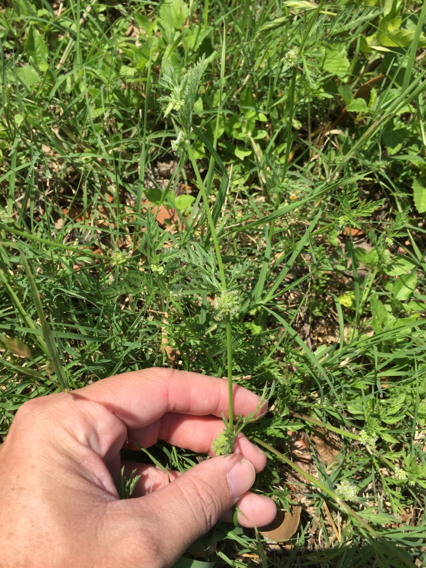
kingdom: Plantae
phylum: Tracheophyta
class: Magnoliopsida
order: Apiales
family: Apiaceae
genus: Torilis
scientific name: Torilis nodosa
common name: Knotted hedge-parsley
